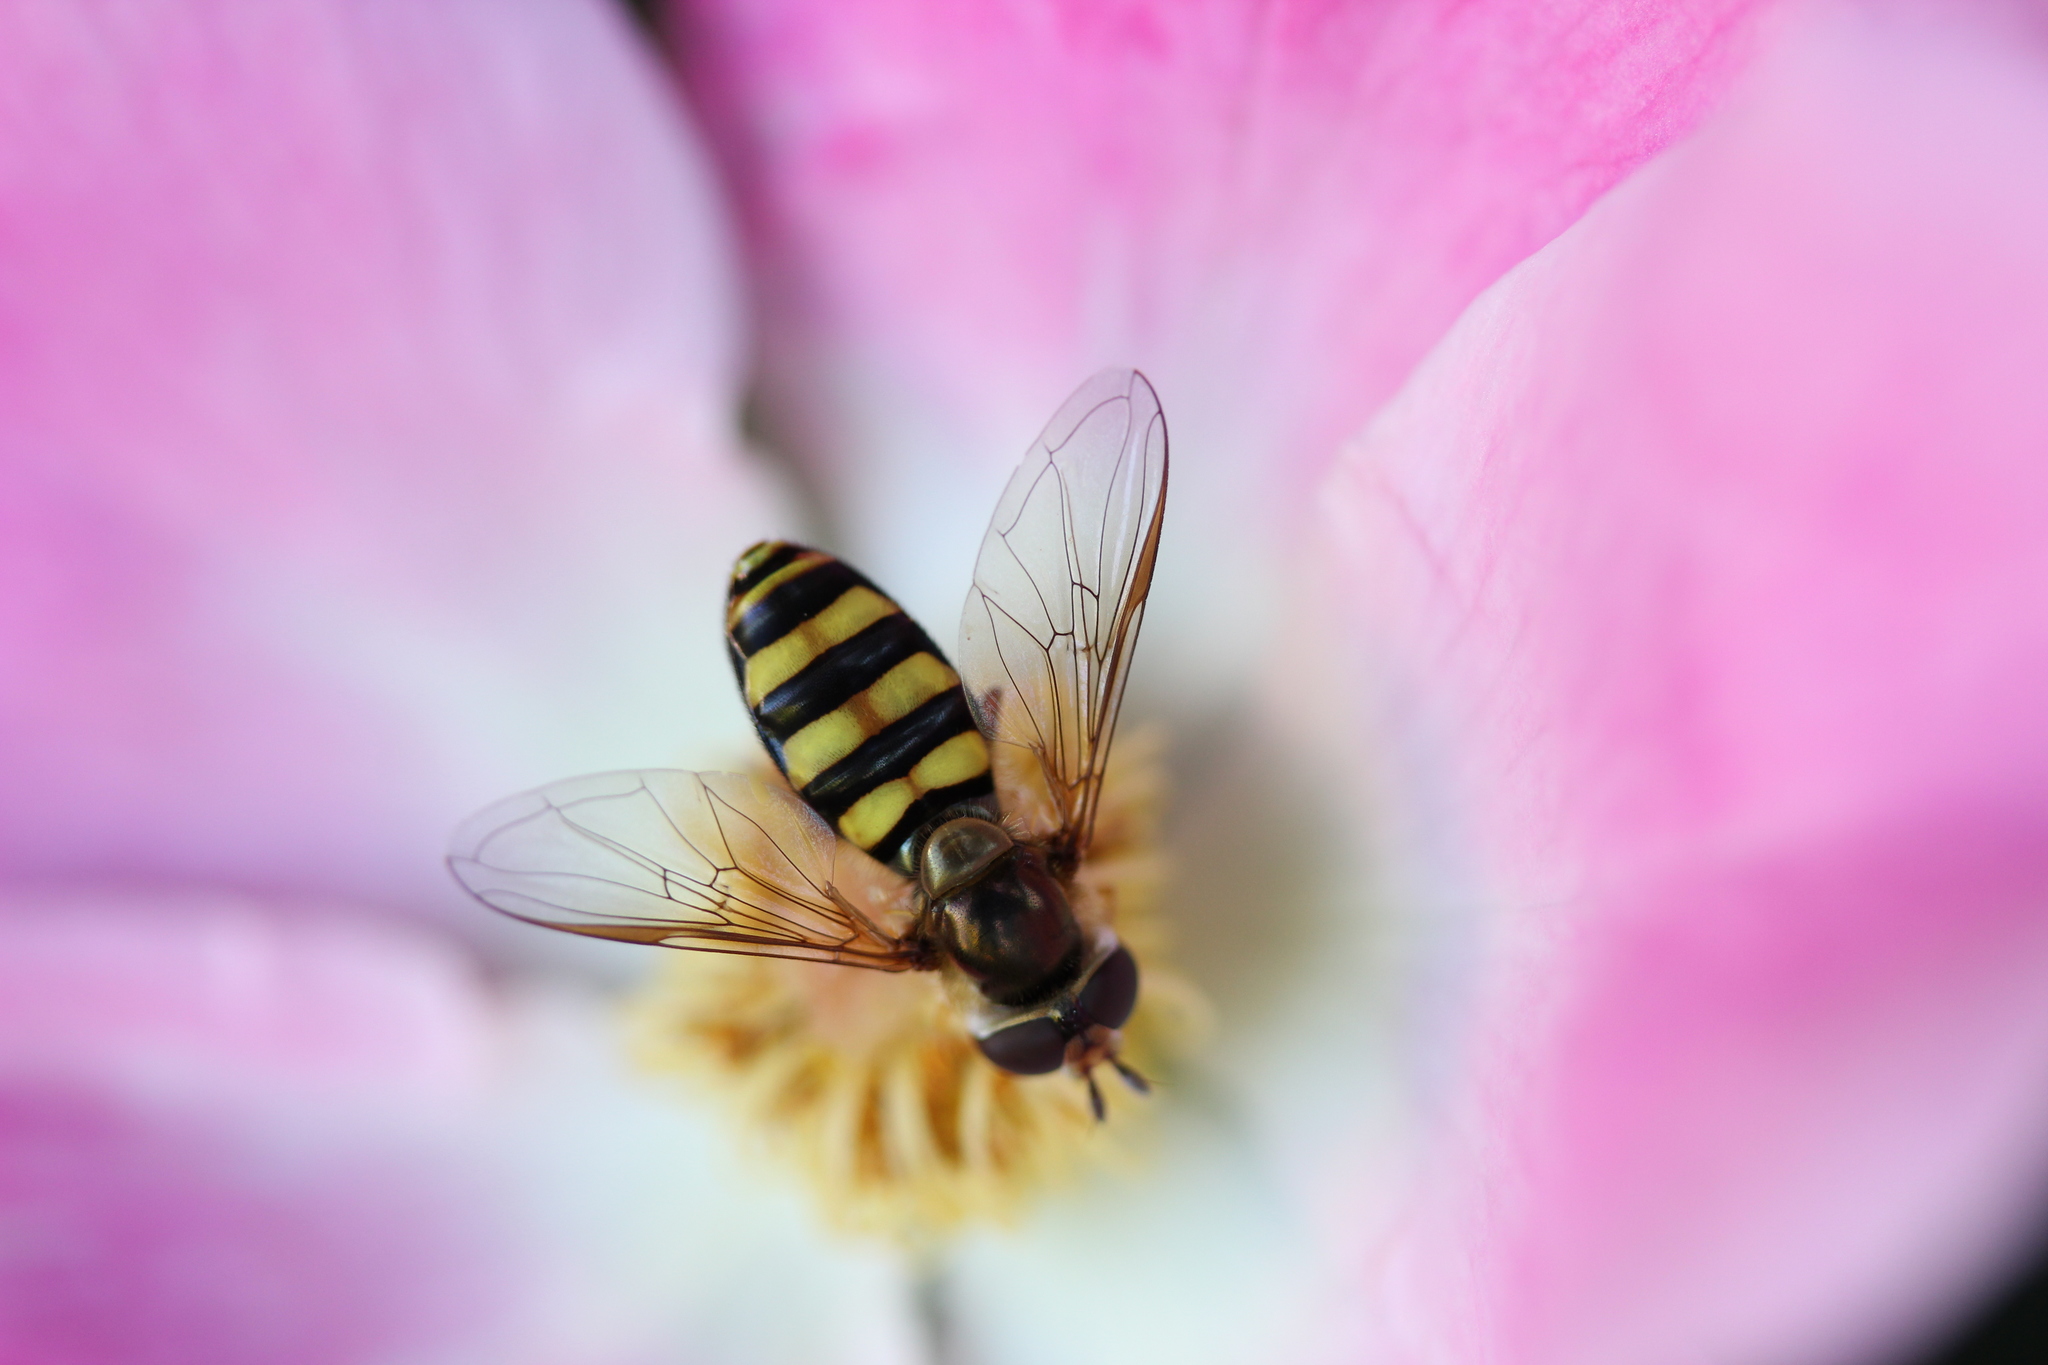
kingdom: Animalia
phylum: Arthropoda
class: Insecta
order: Diptera
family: Syrphidae
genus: Eupeodes
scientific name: Eupeodes
